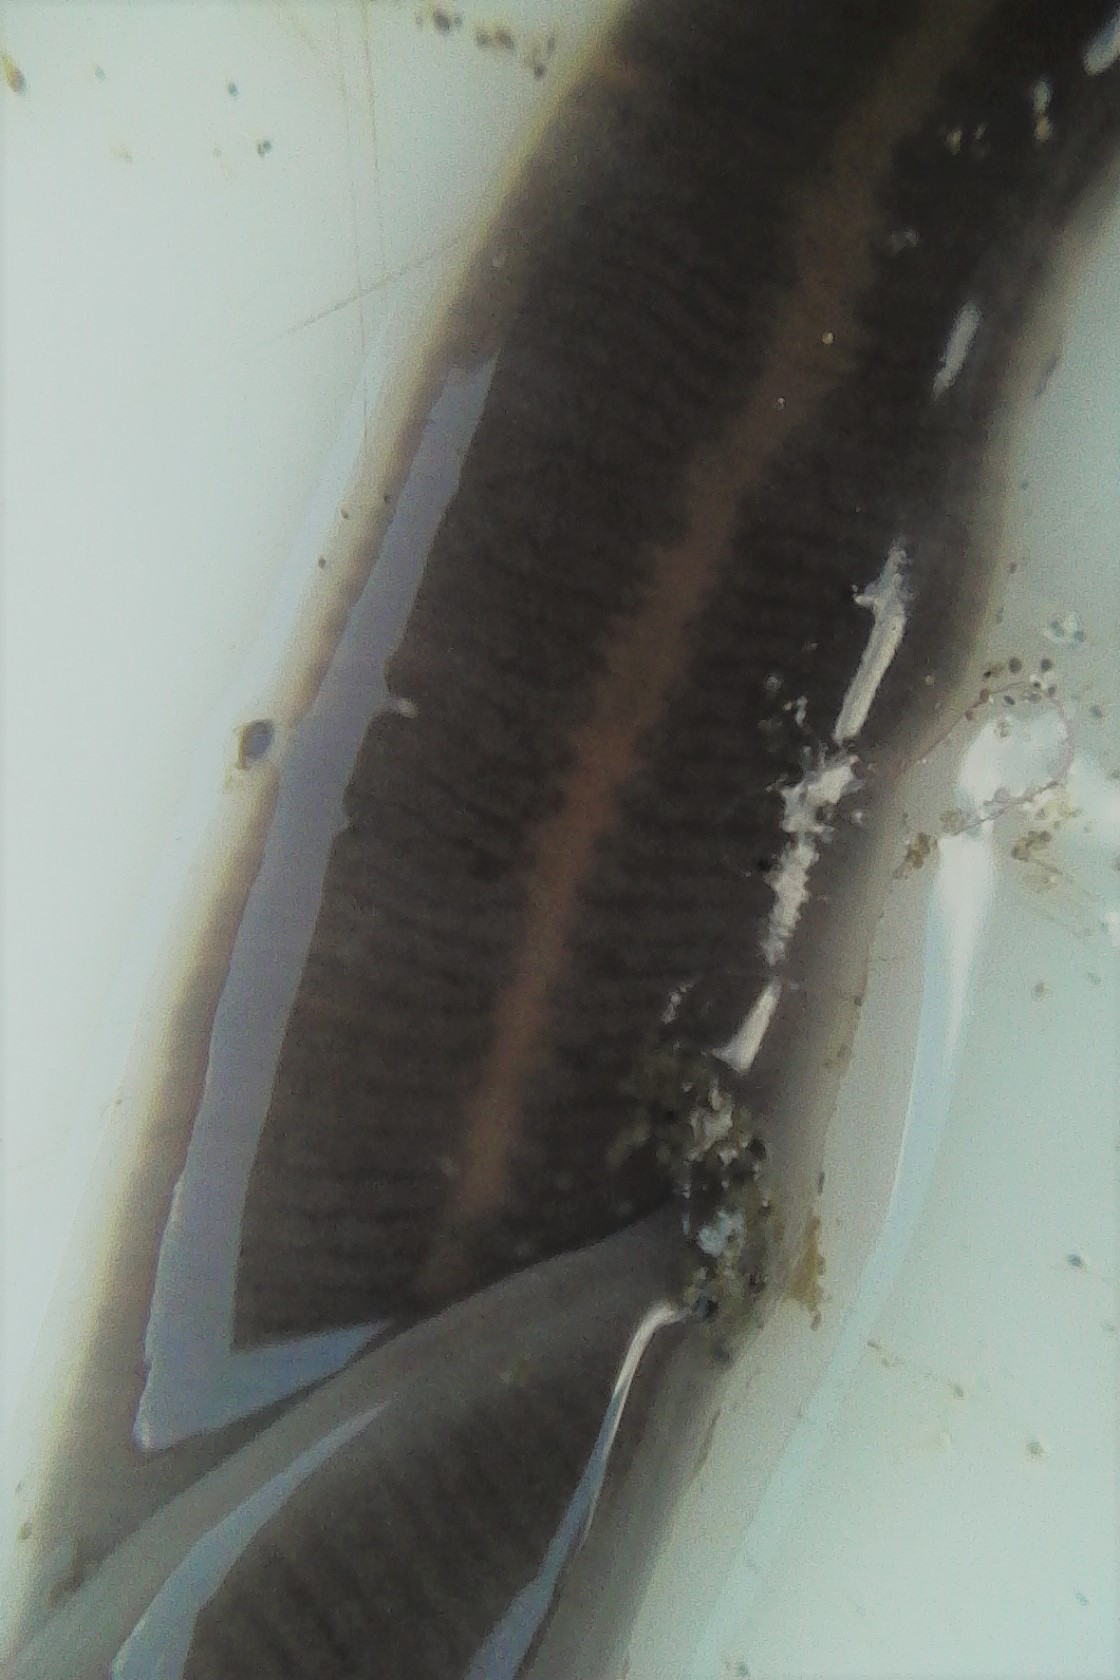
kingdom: Animalia
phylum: Nemertea
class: Pilidiophora
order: Heteronemertea
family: Lineidae
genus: Praealbonemertes
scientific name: Praealbonemertes whangateaunienses
